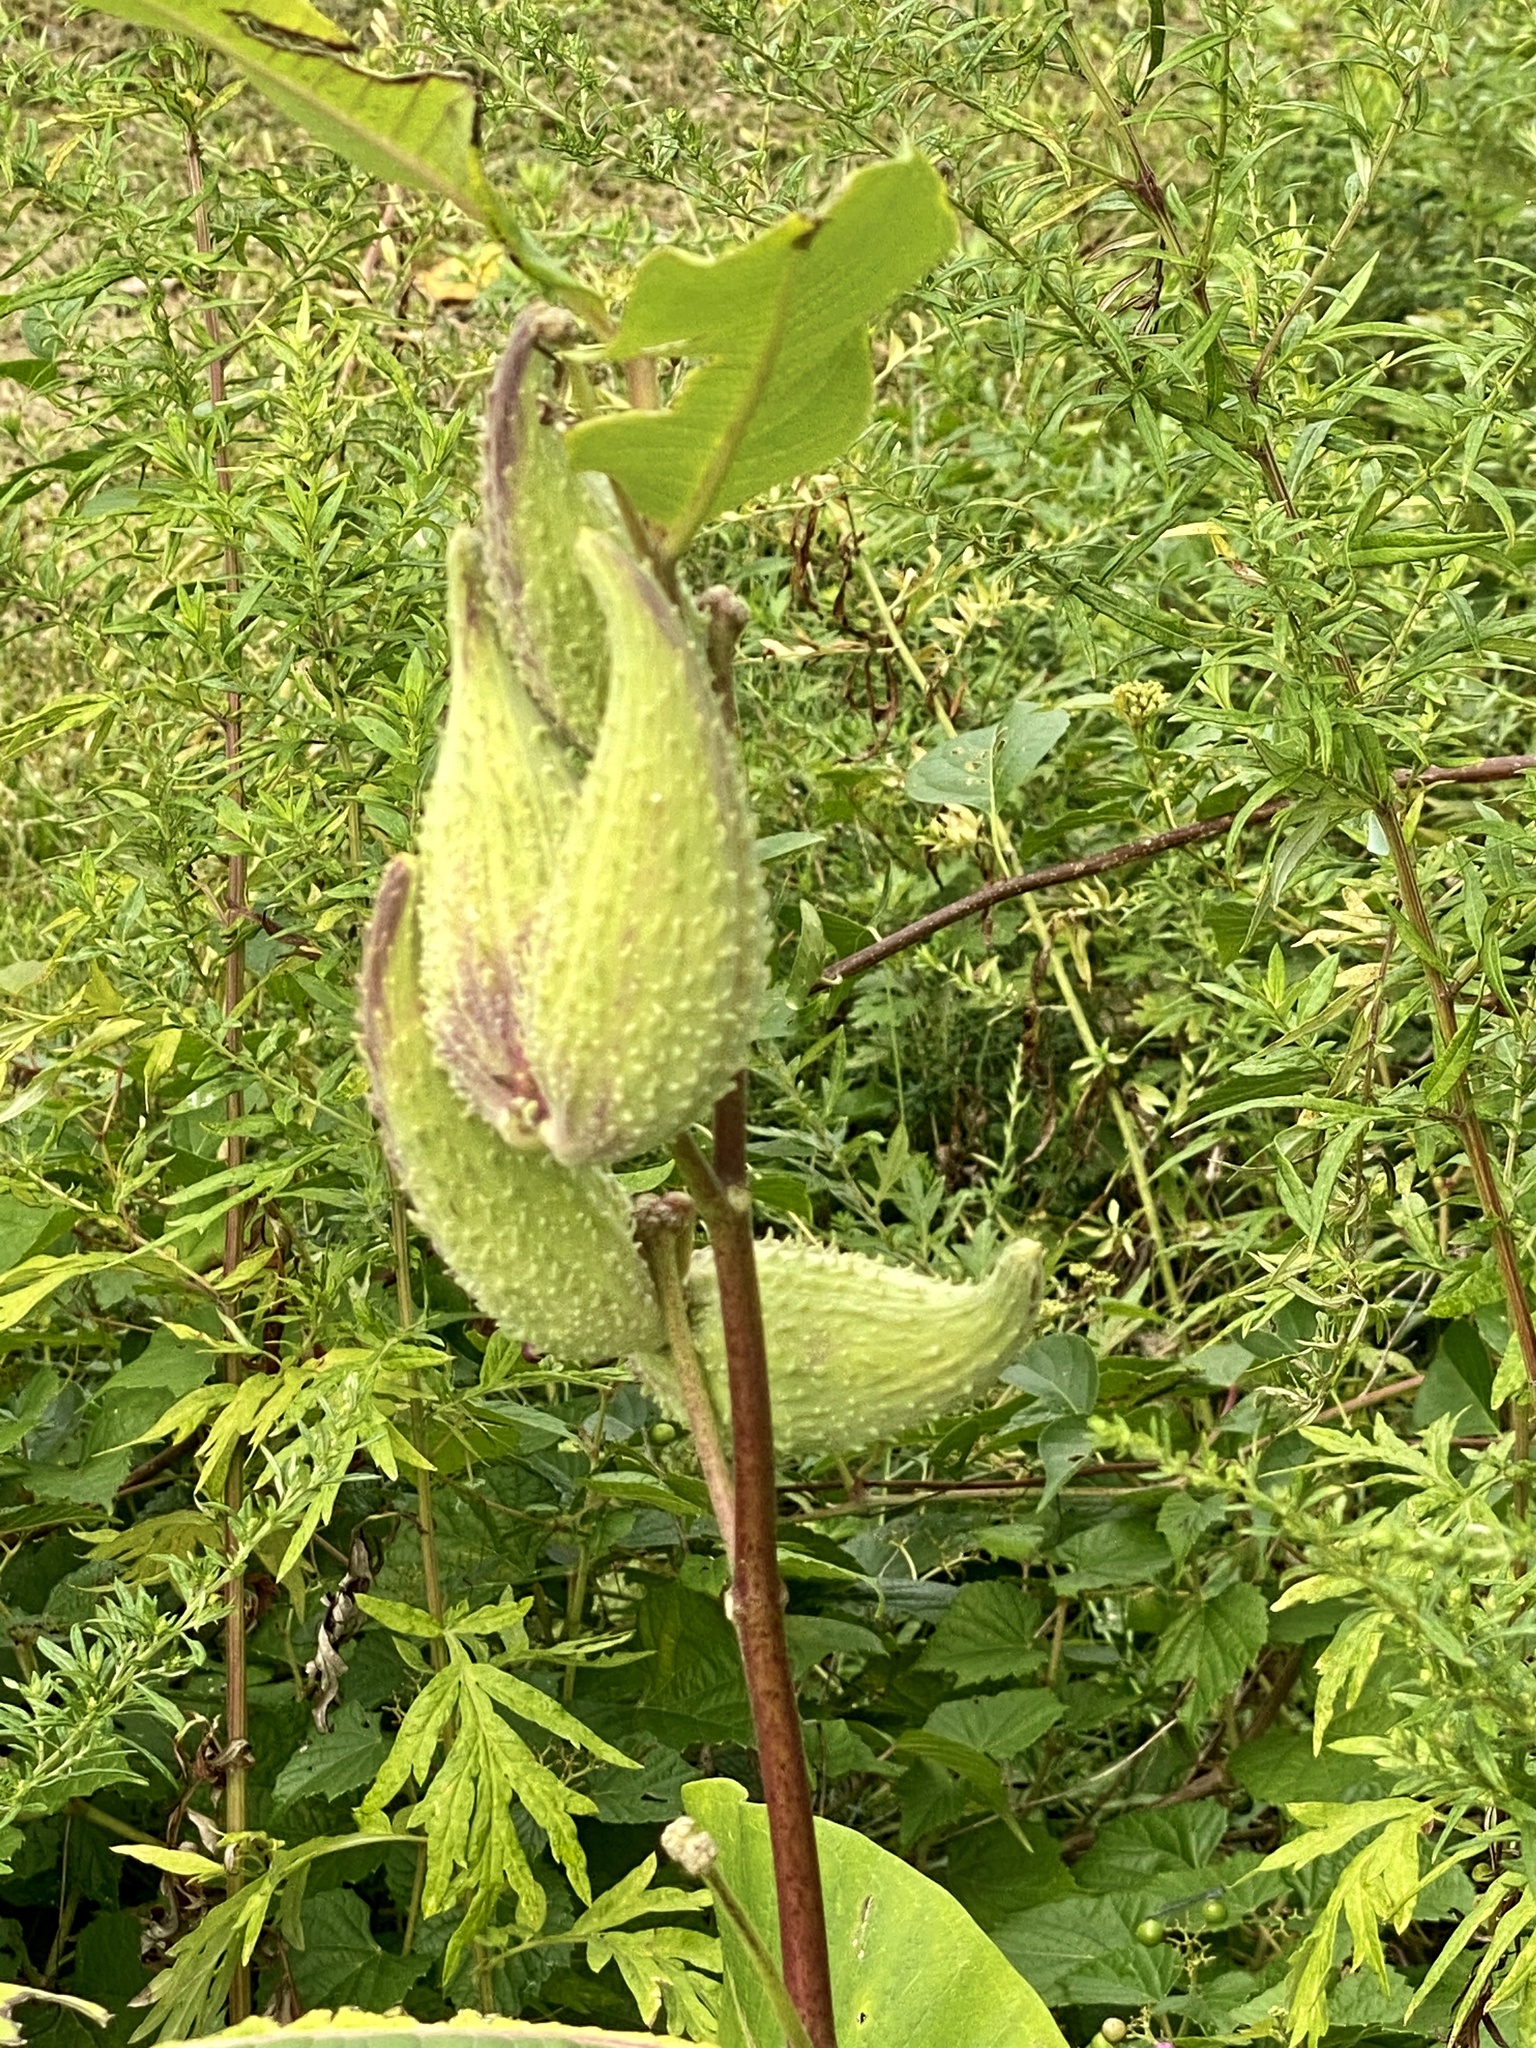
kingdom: Plantae
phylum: Tracheophyta
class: Magnoliopsida
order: Gentianales
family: Apocynaceae
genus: Asclepias
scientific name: Asclepias syriaca
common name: Common milkweed
